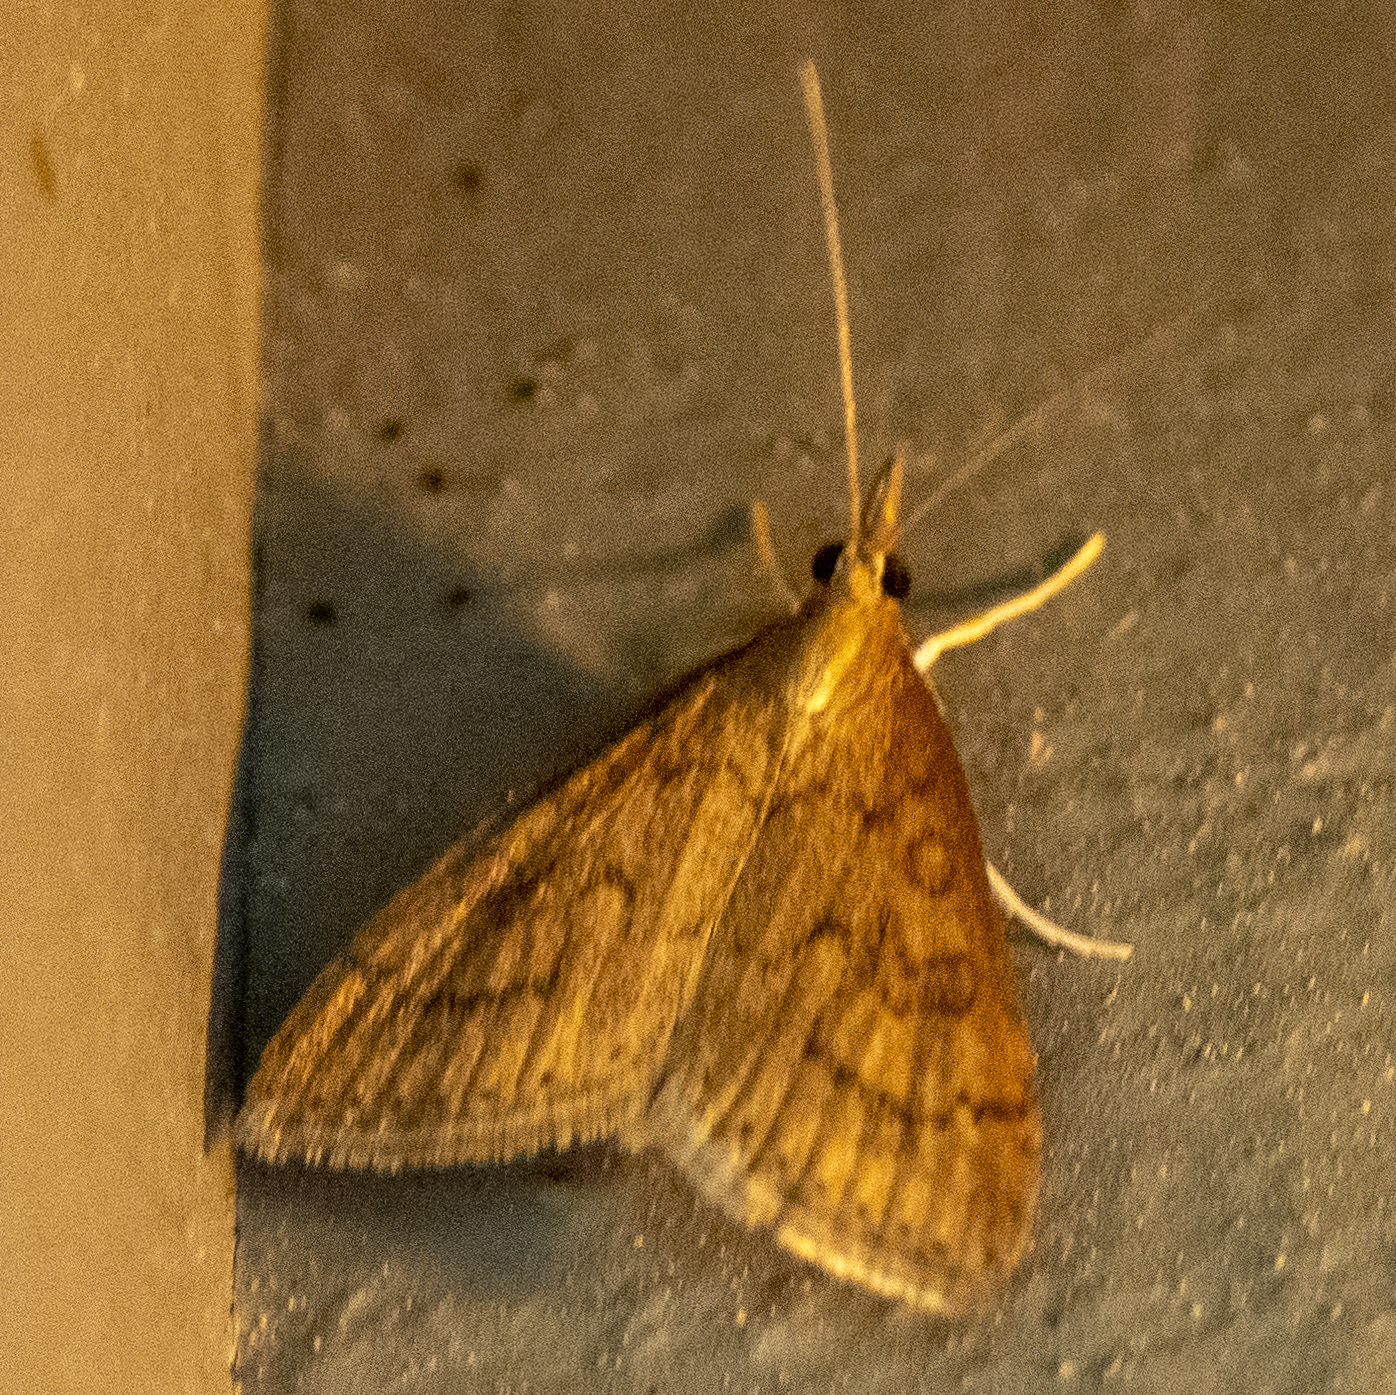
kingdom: Animalia
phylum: Arthropoda
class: Insecta
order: Lepidoptera
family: Crambidae
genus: Udea
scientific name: Udea rubigalis
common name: Celery leaftier moth
